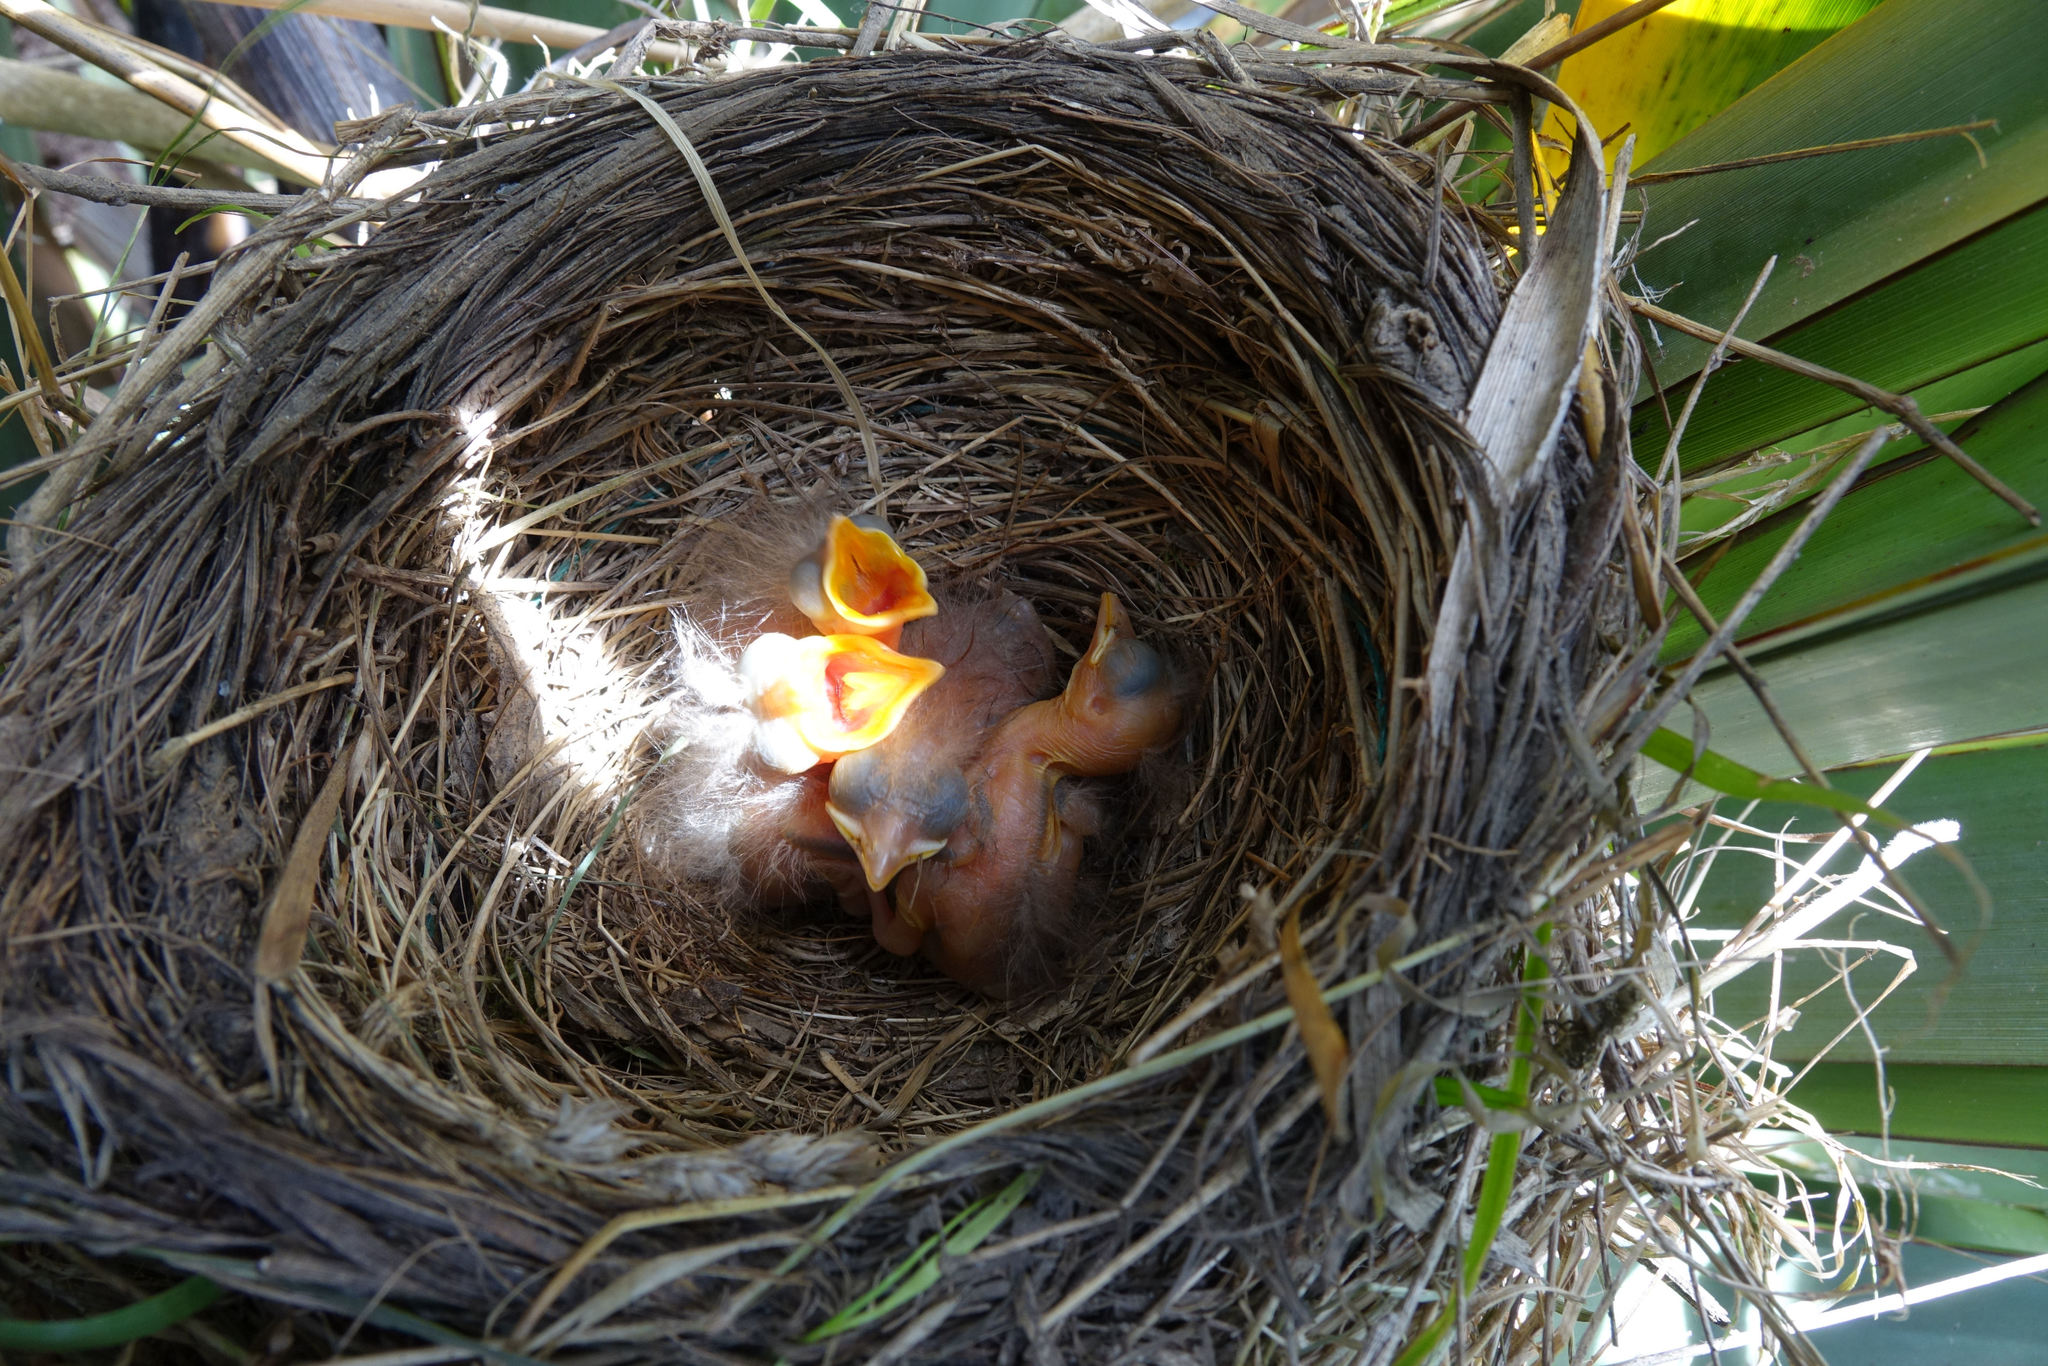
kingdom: Animalia
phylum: Chordata
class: Aves
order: Passeriformes
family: Turdidae
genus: Turdus
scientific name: Turdus merula
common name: Common blackbird
